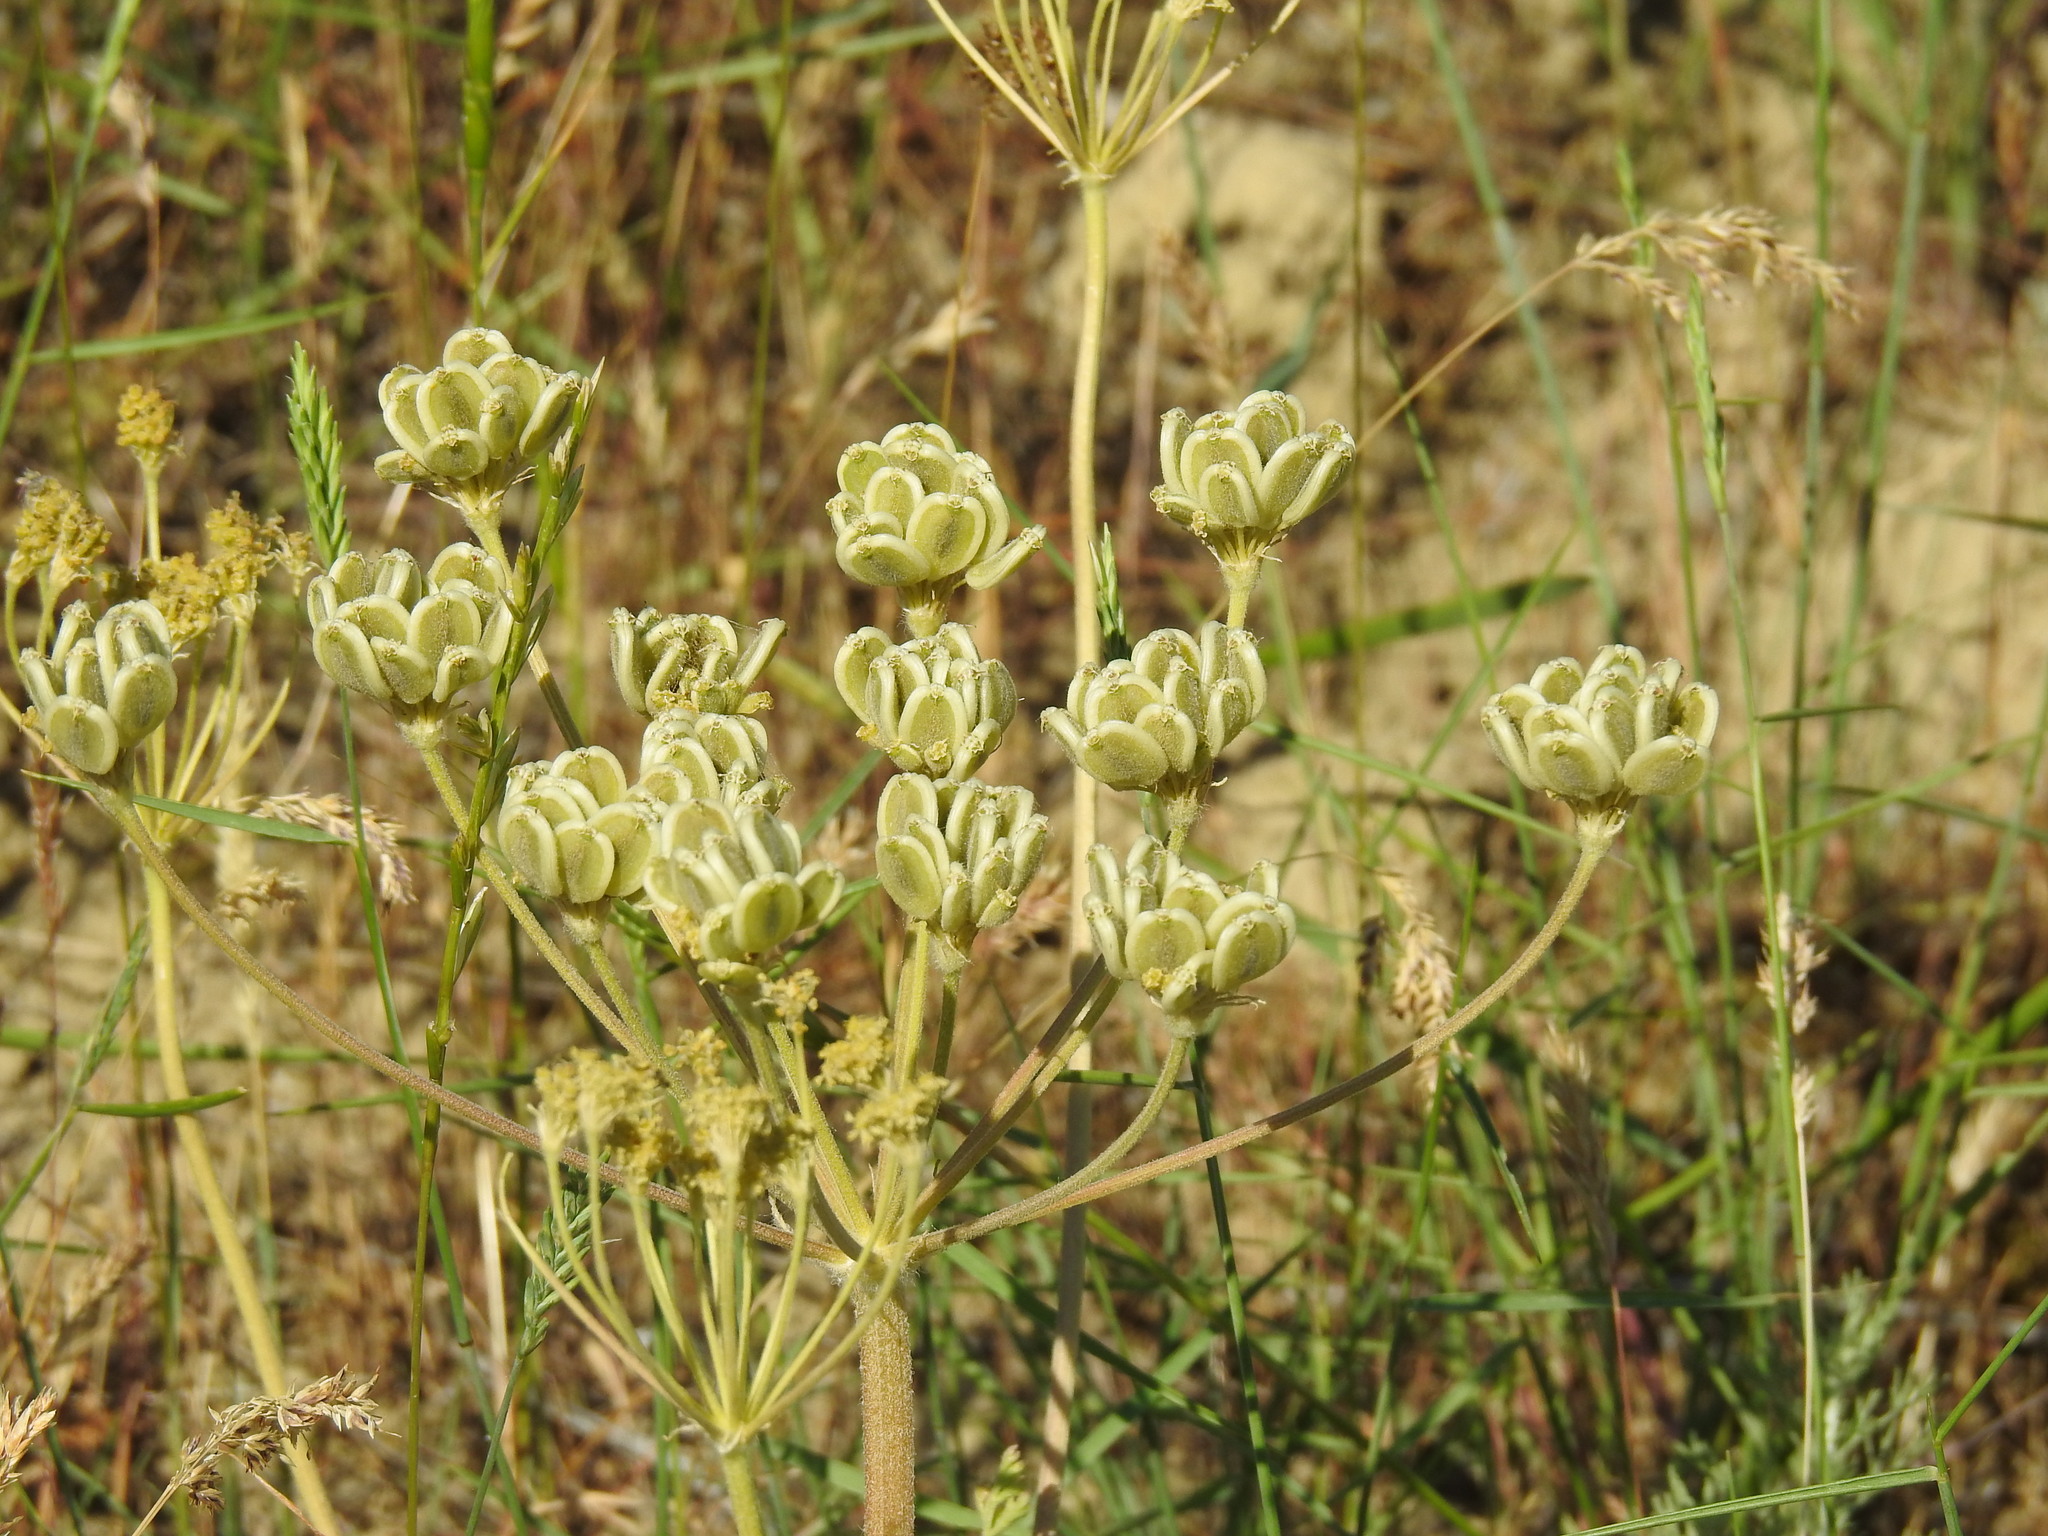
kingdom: Plantae
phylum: Tracheophyta
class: Magnoliopsida
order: Apiales
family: Apiaceae
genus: Zosima
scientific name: Zosima absinthiifolia
